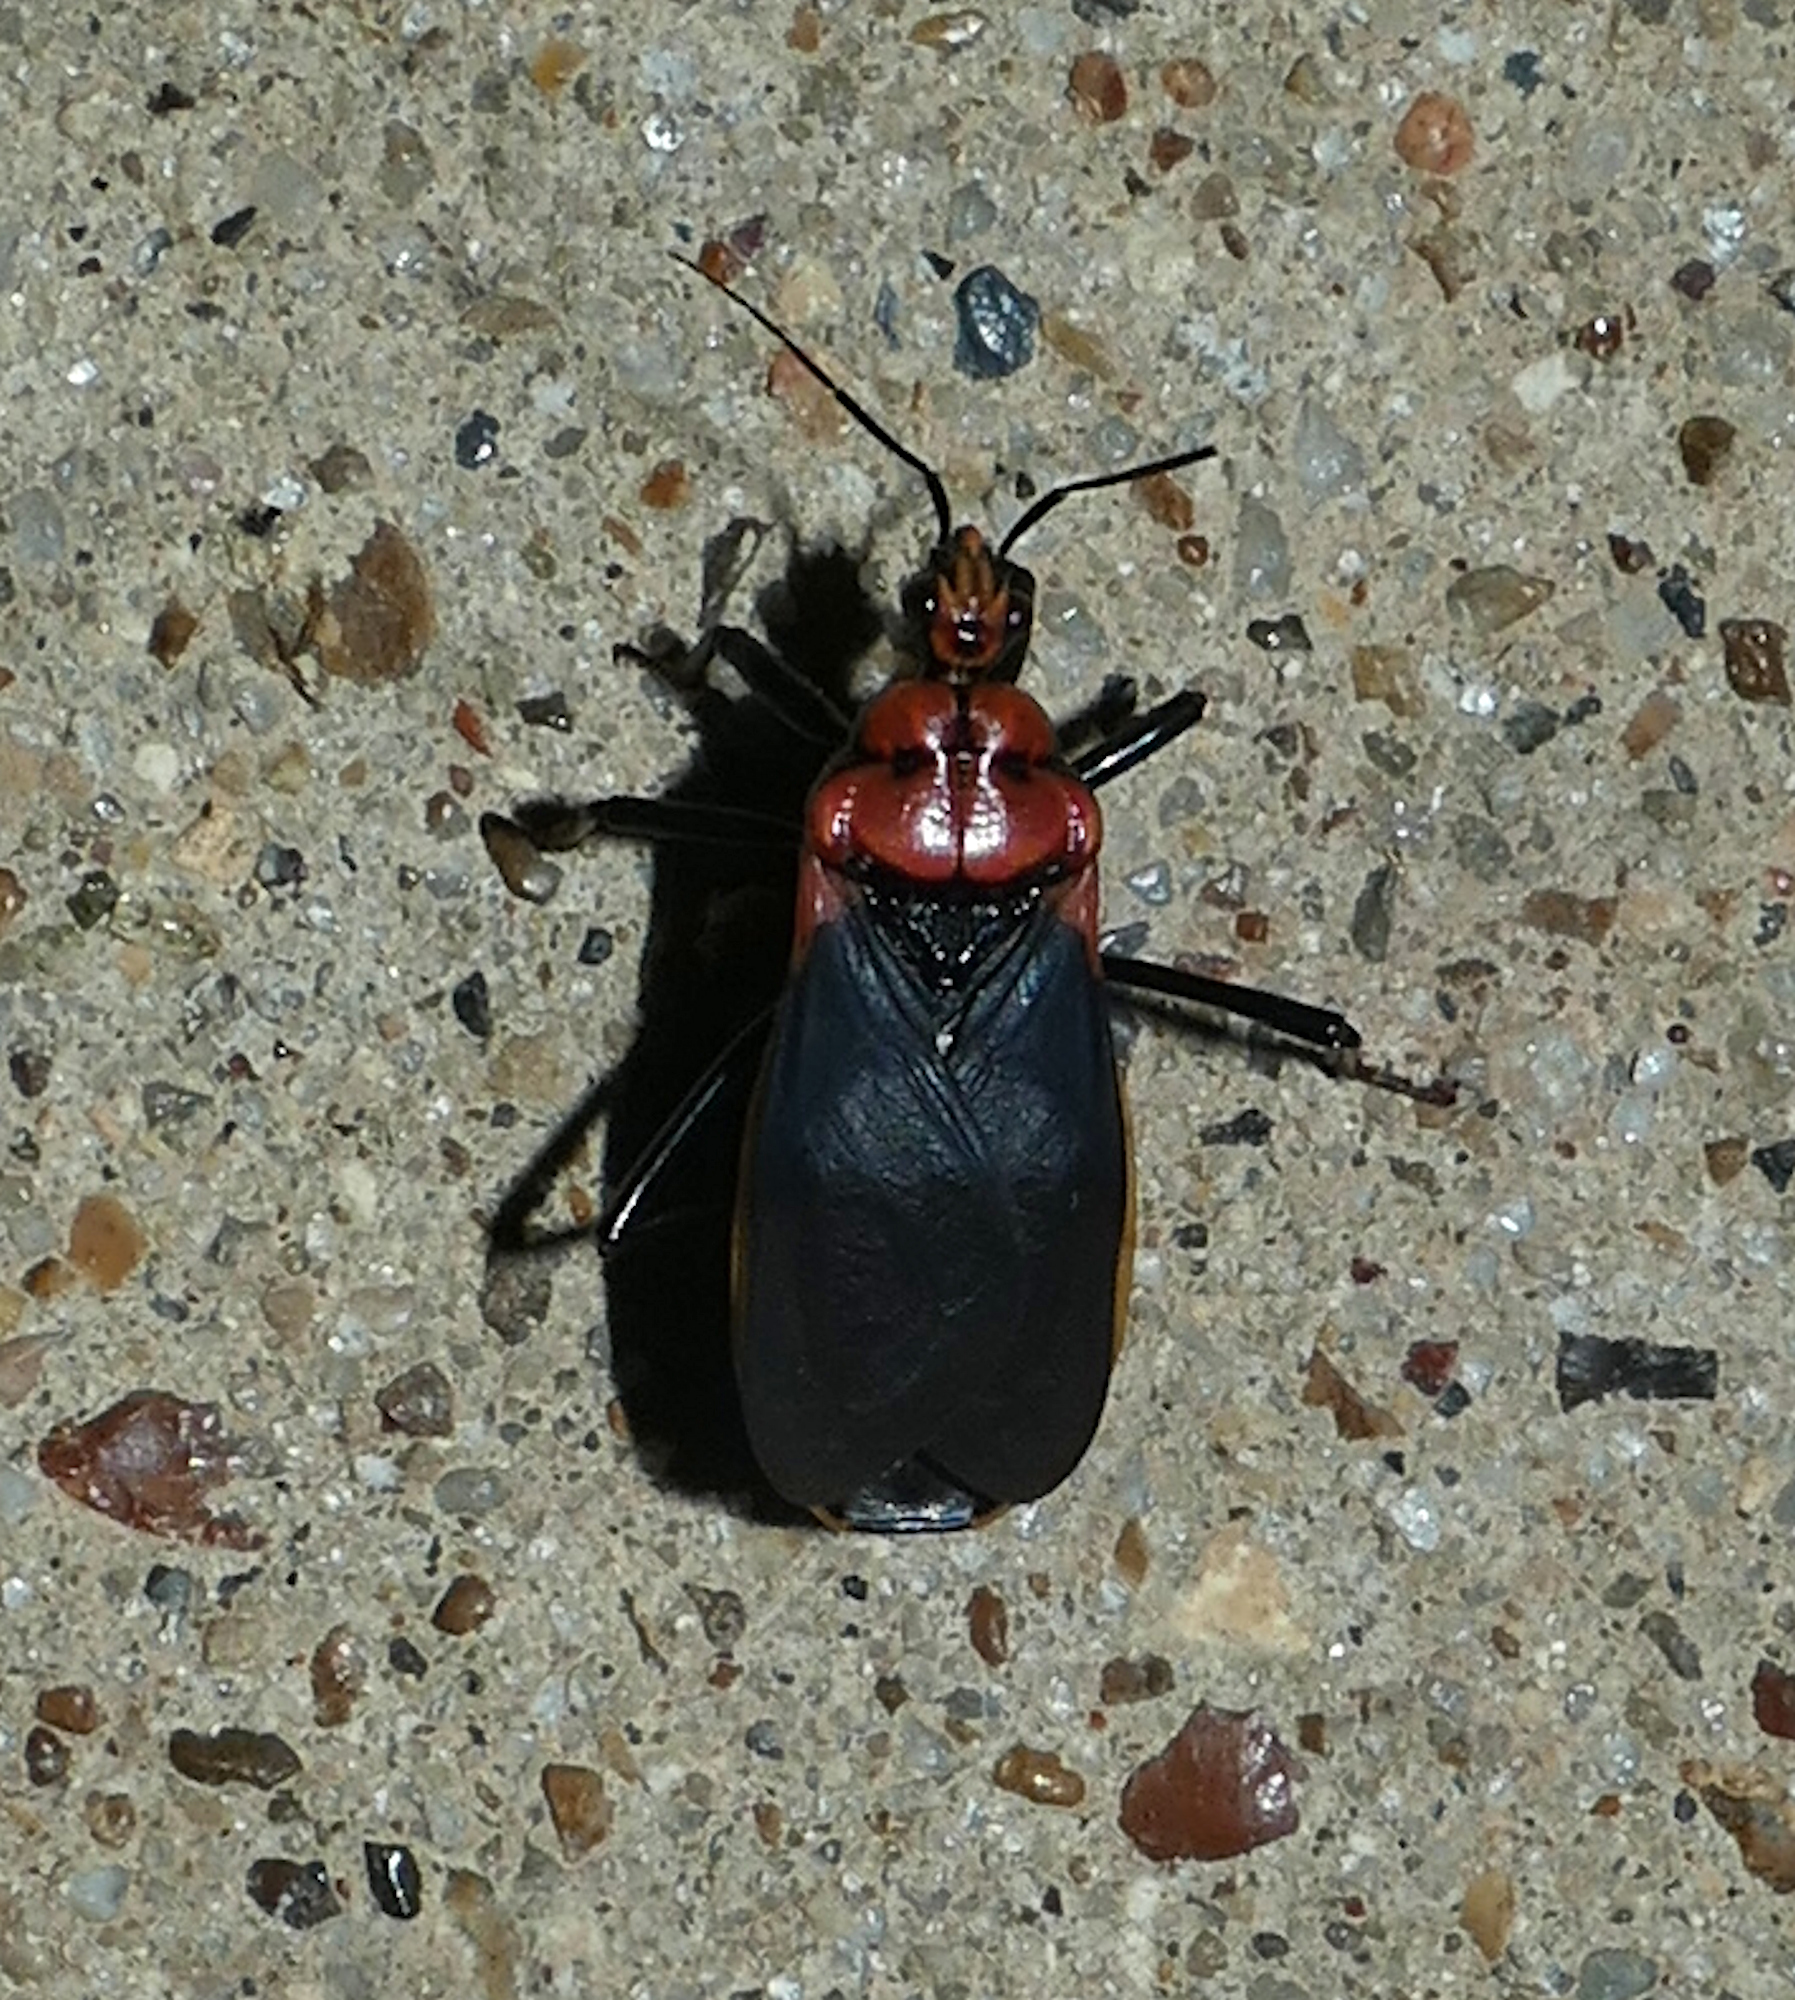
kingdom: Animalia
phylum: Arthropoda
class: Insecta
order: Hemiptera
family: Reduviidae
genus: Rhiginia
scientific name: Rhiginia cinctiventris
